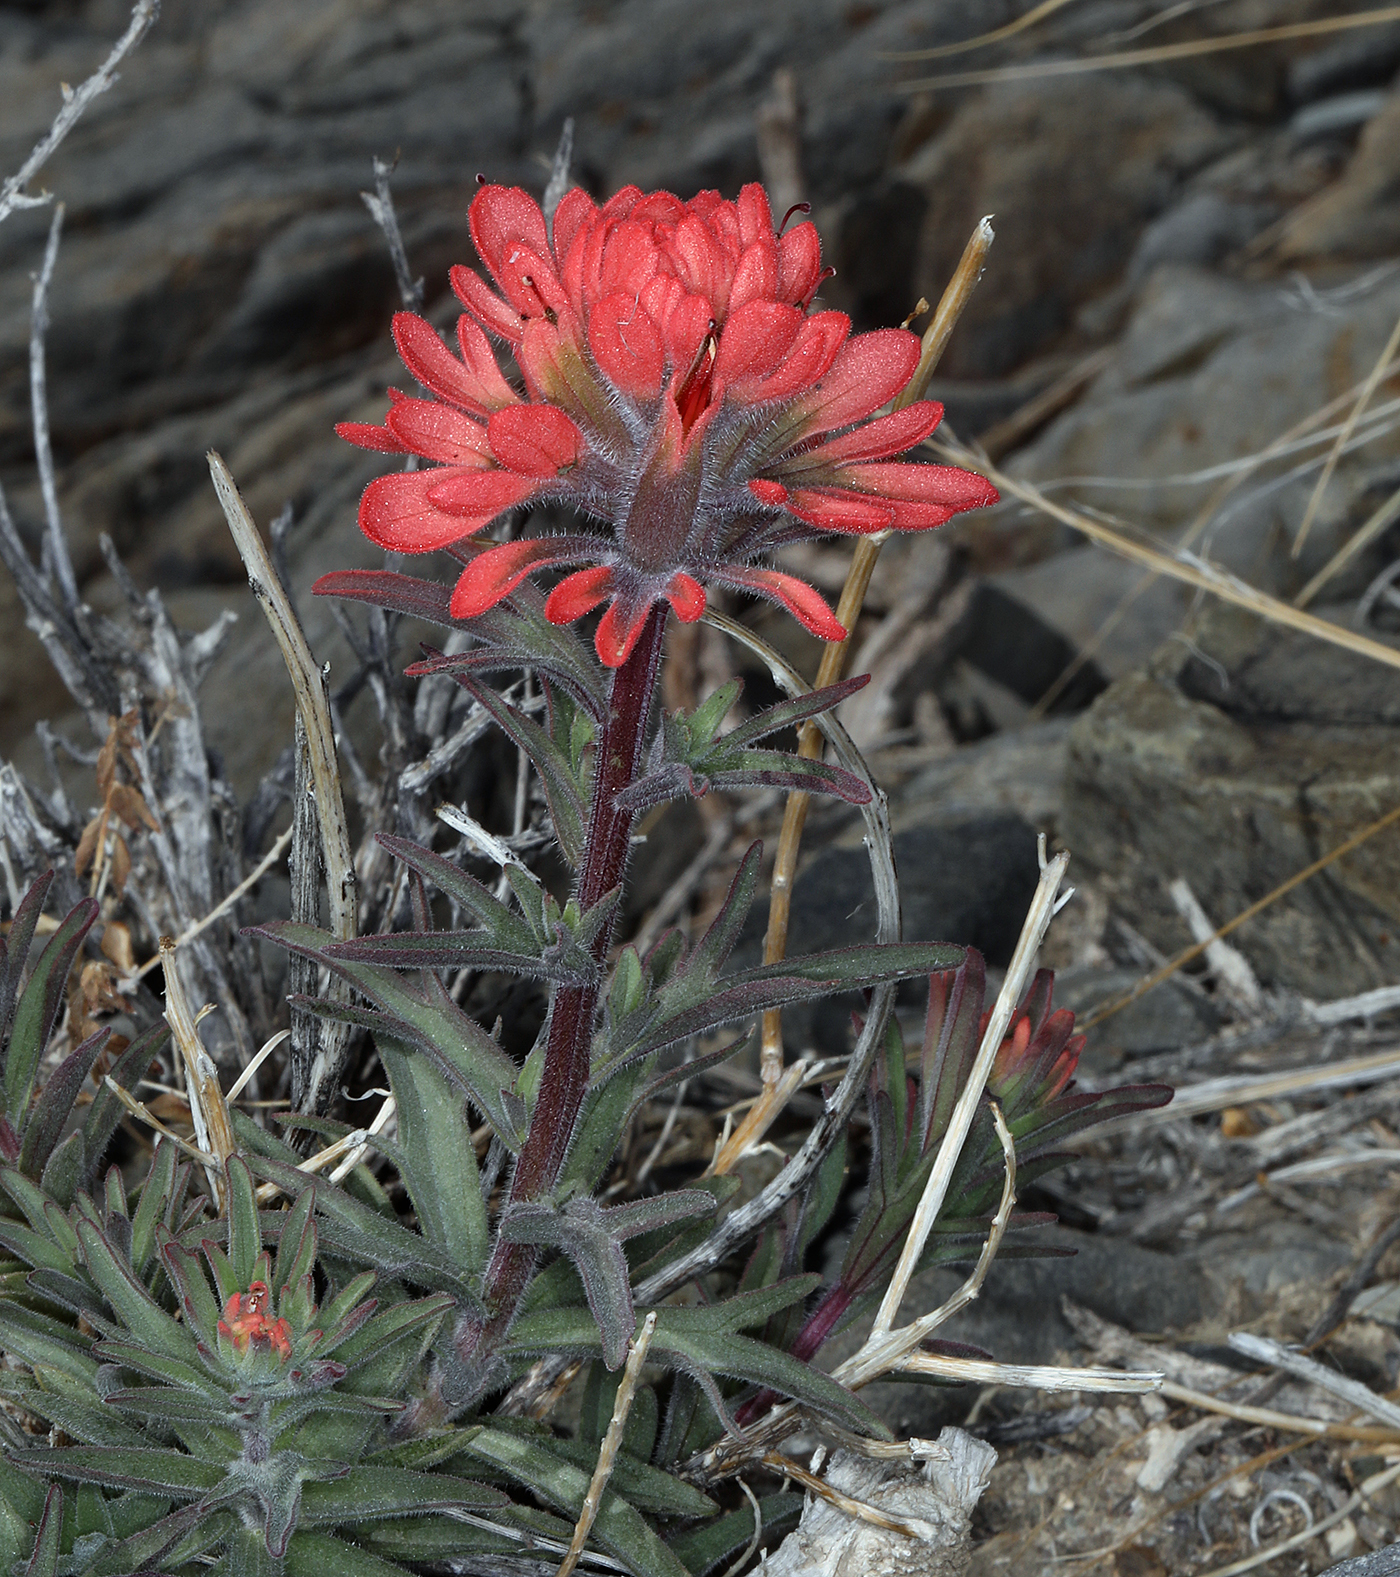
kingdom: Plantae
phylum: Tracheophyta
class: Magnoliopsida
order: Lamiales
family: Orobanchaceae
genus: Castilleja
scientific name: Castilleja chromosa
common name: Desert paintbrush
